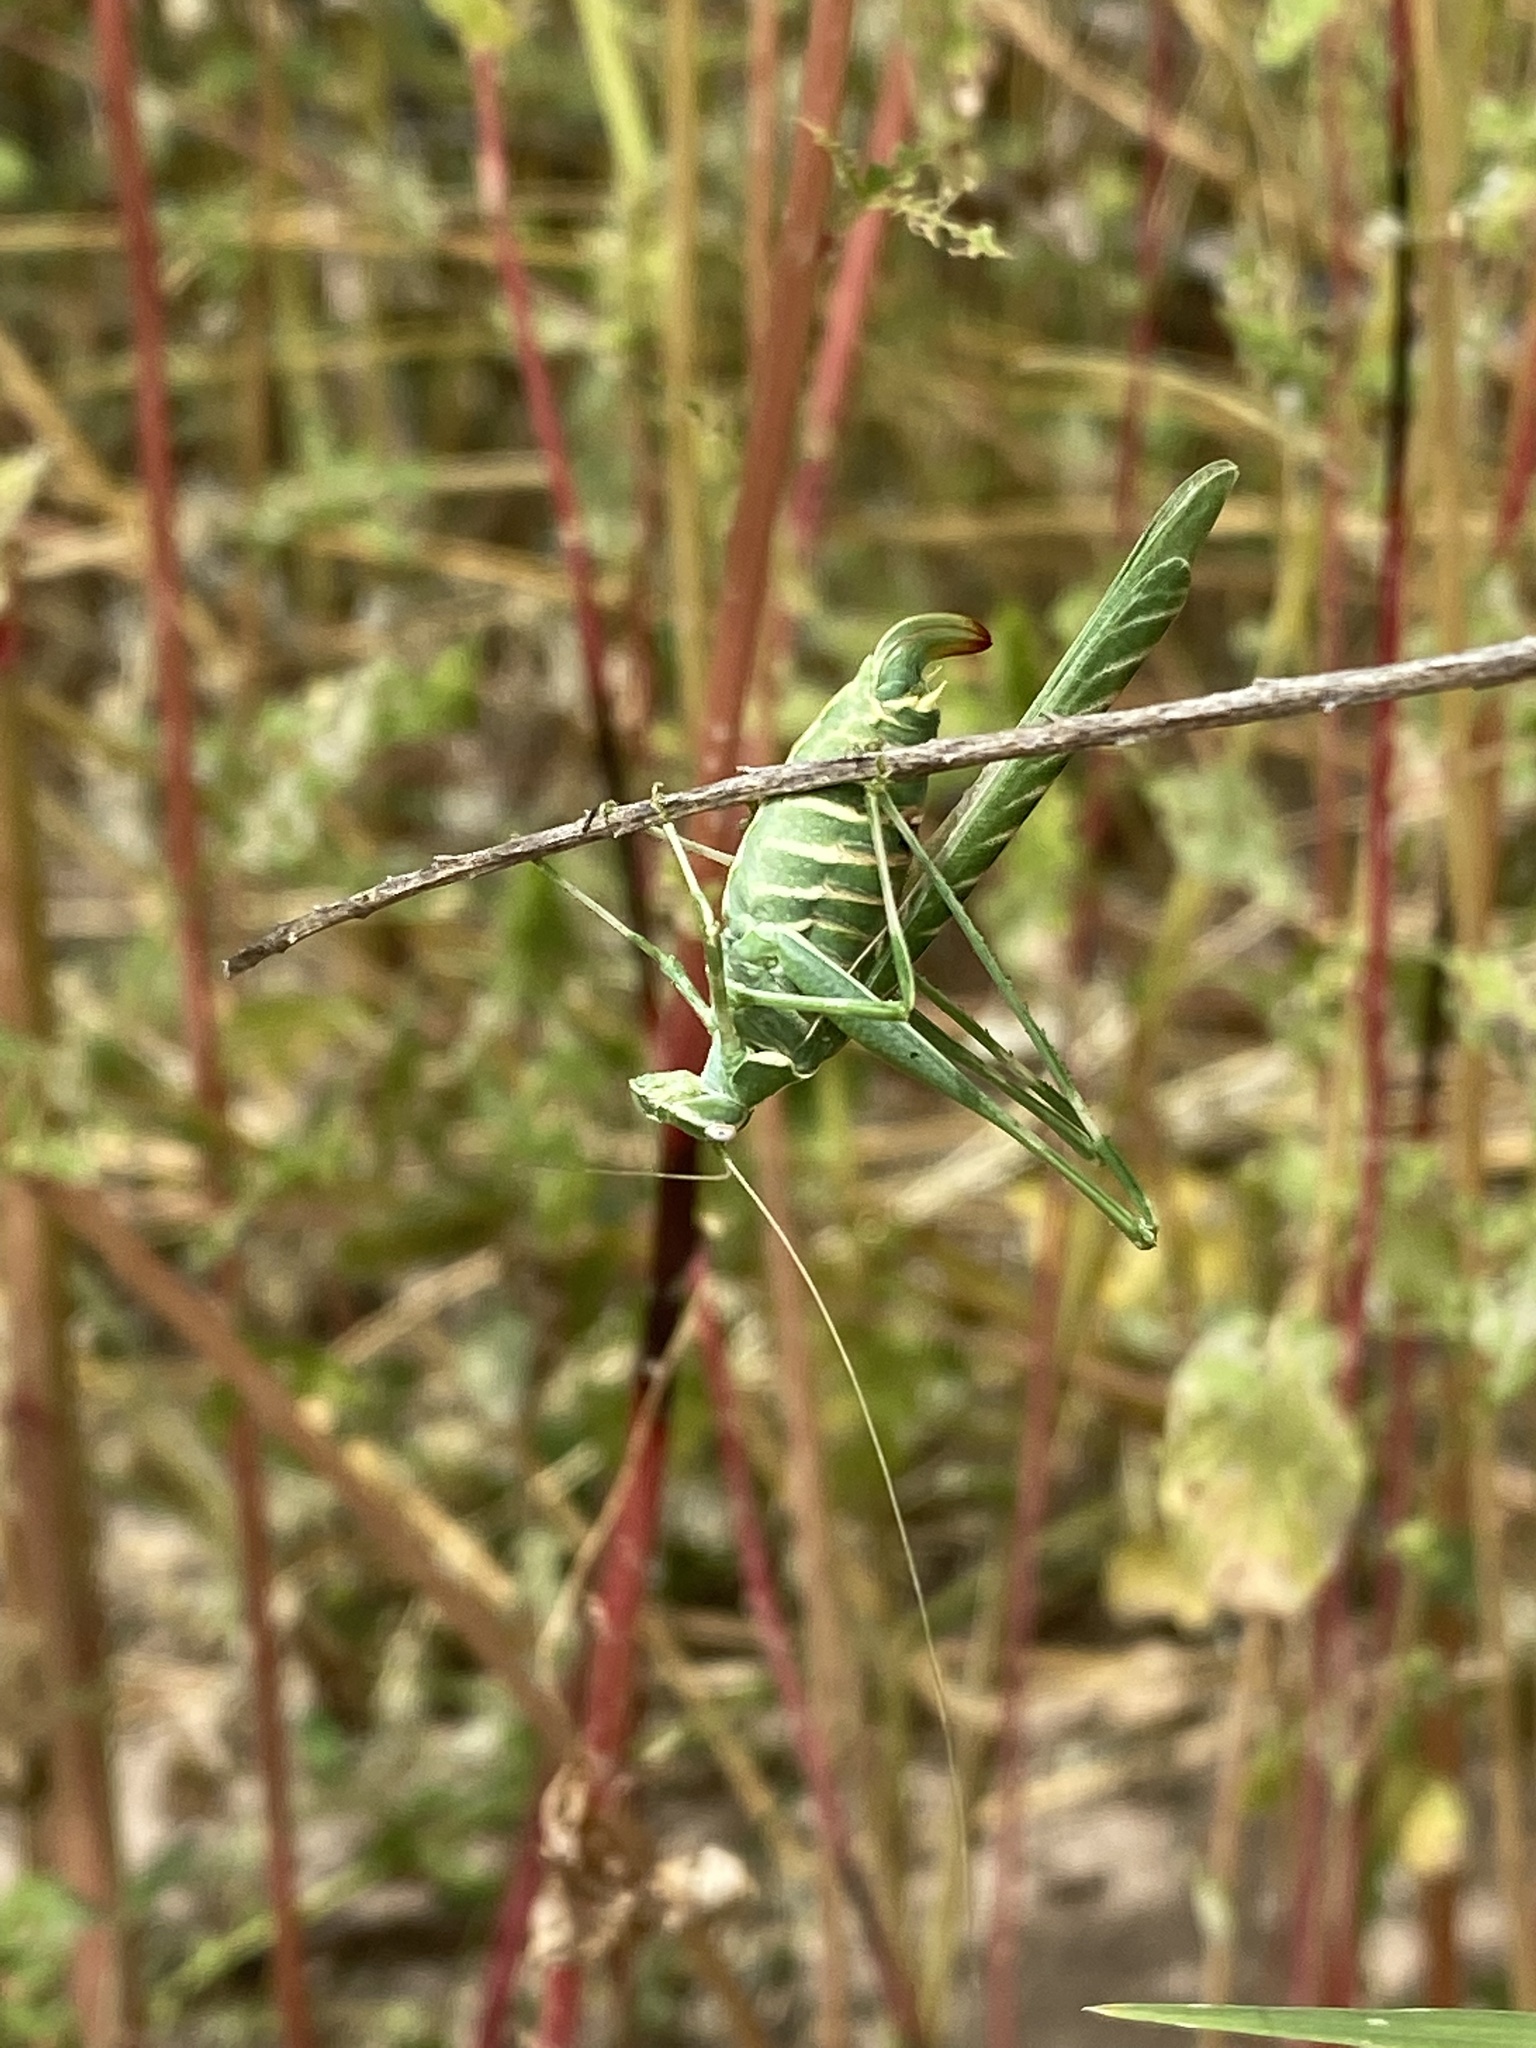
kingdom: Animalia
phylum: Arthropoda
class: Insecta
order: Orthoptera
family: Tettigoniidae
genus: Insara
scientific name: Insara elegans
